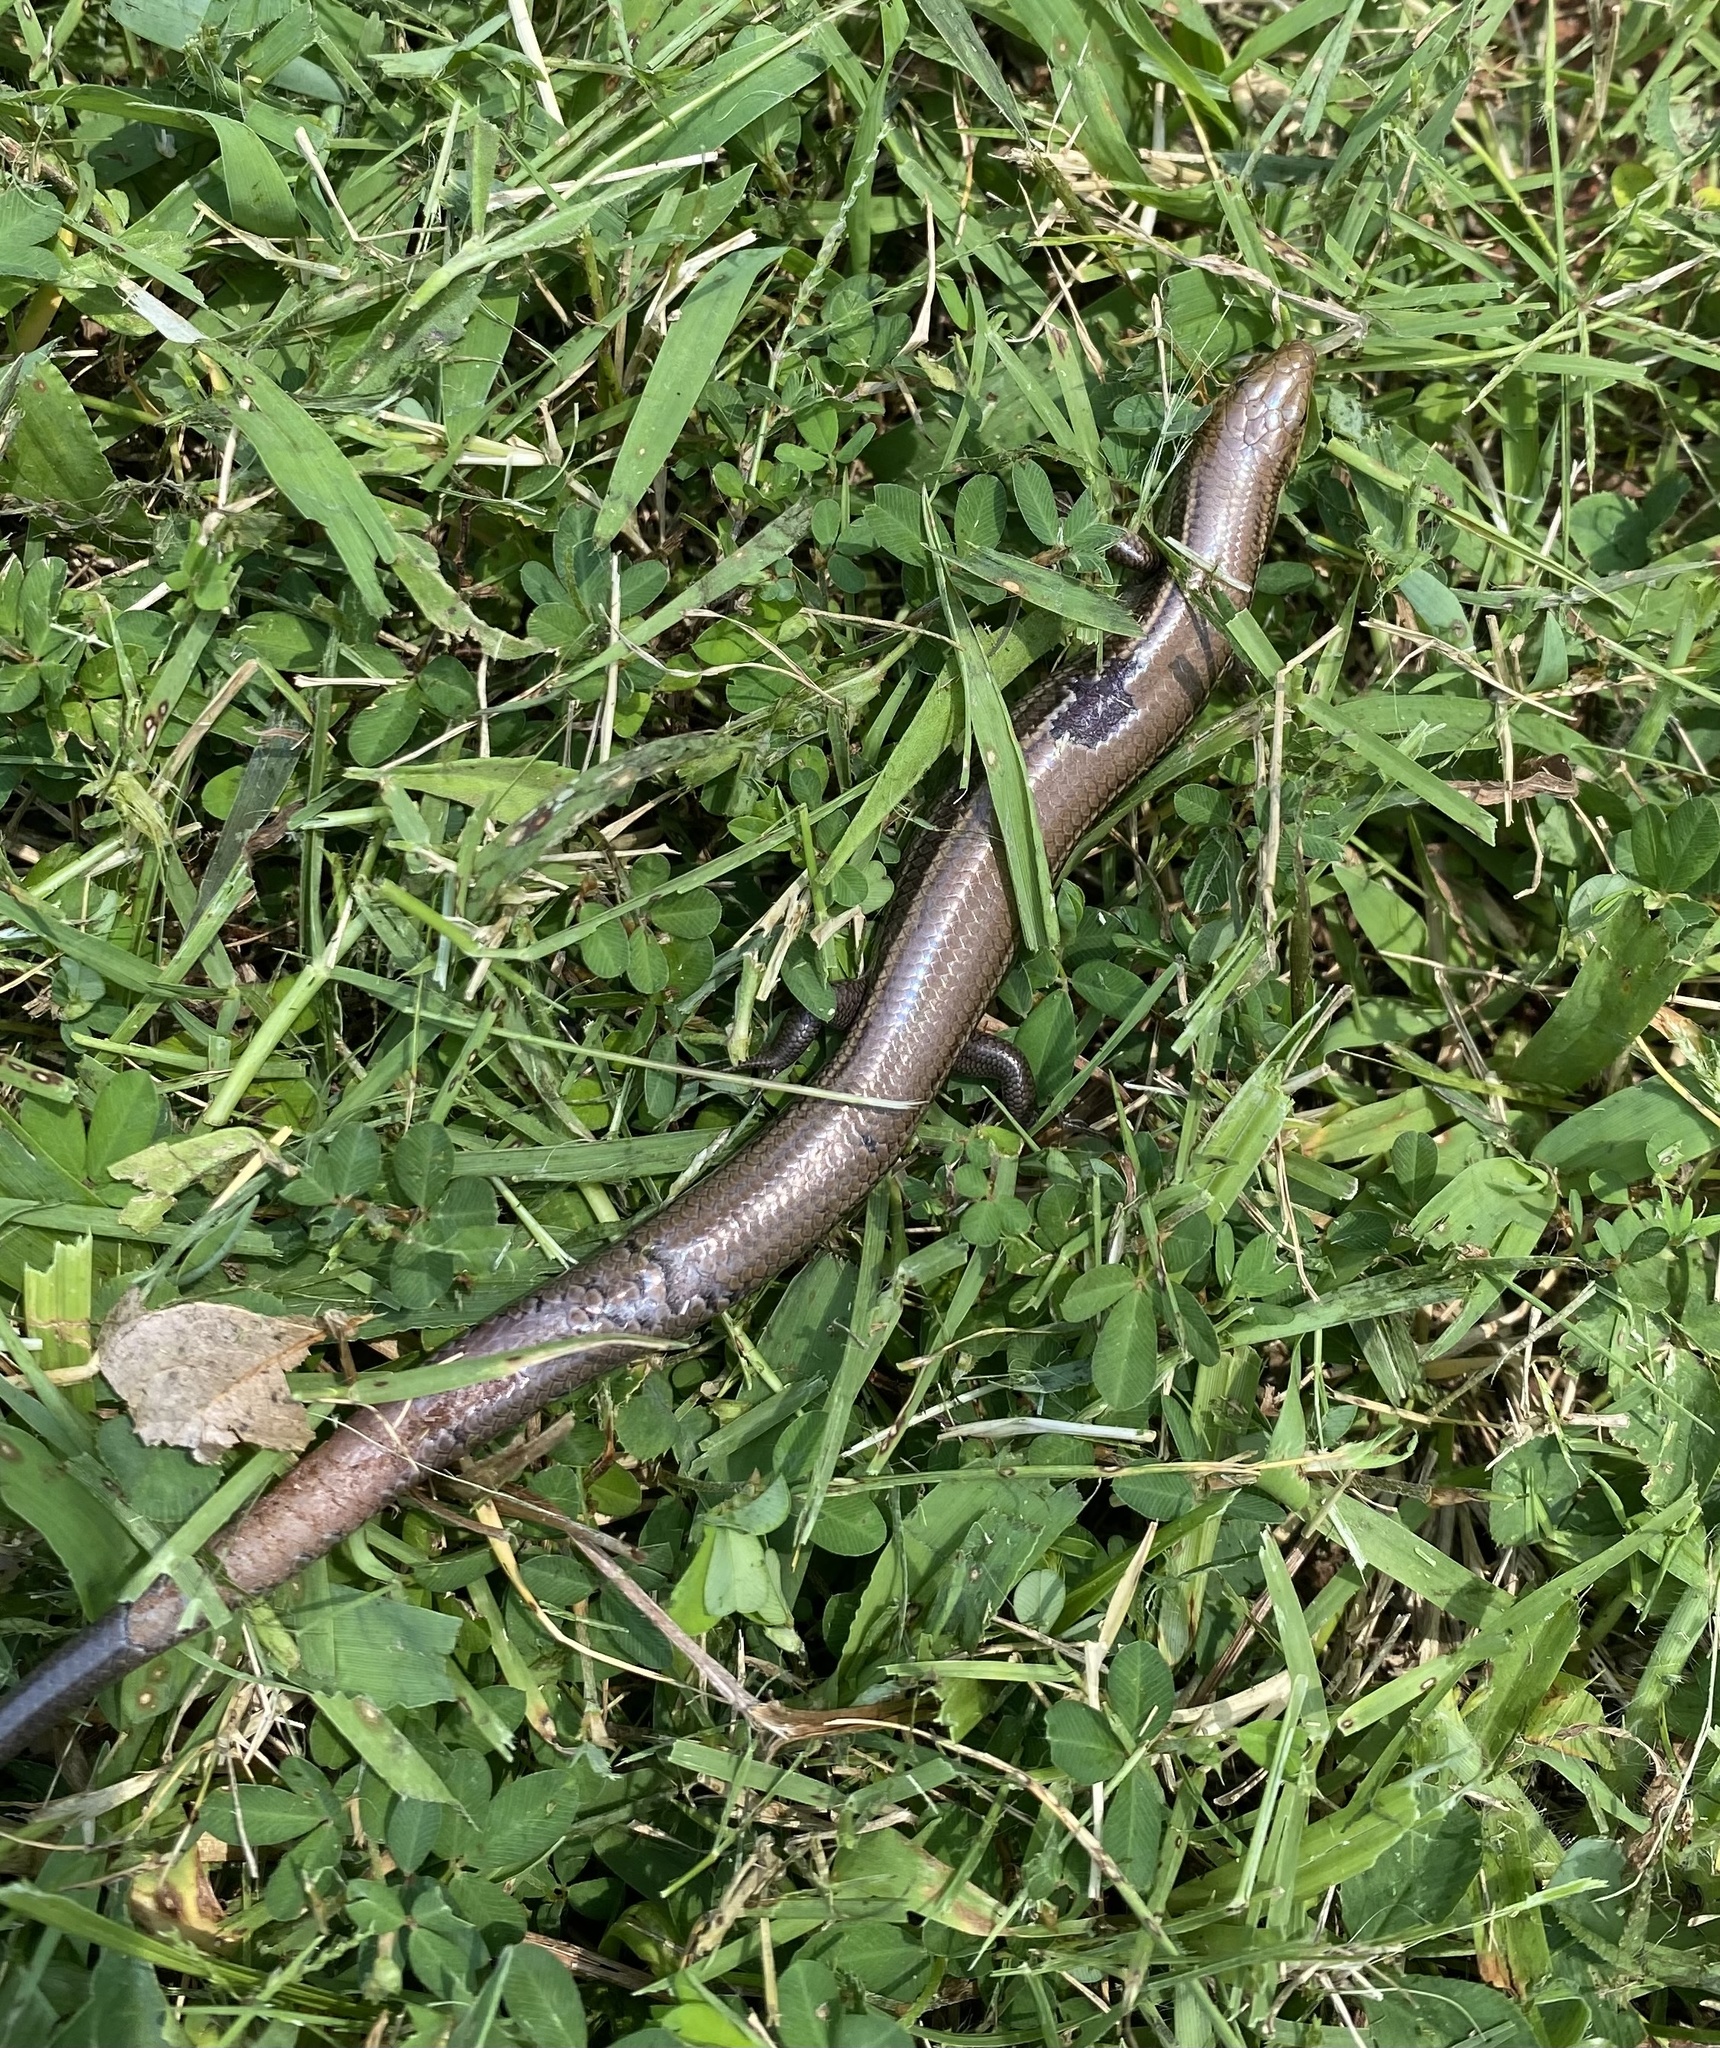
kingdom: Animalia
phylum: Chordata
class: Squamata
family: Scincidae
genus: Plestiodon
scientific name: Plestiodon septentrionalis
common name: Northern prairie skink
